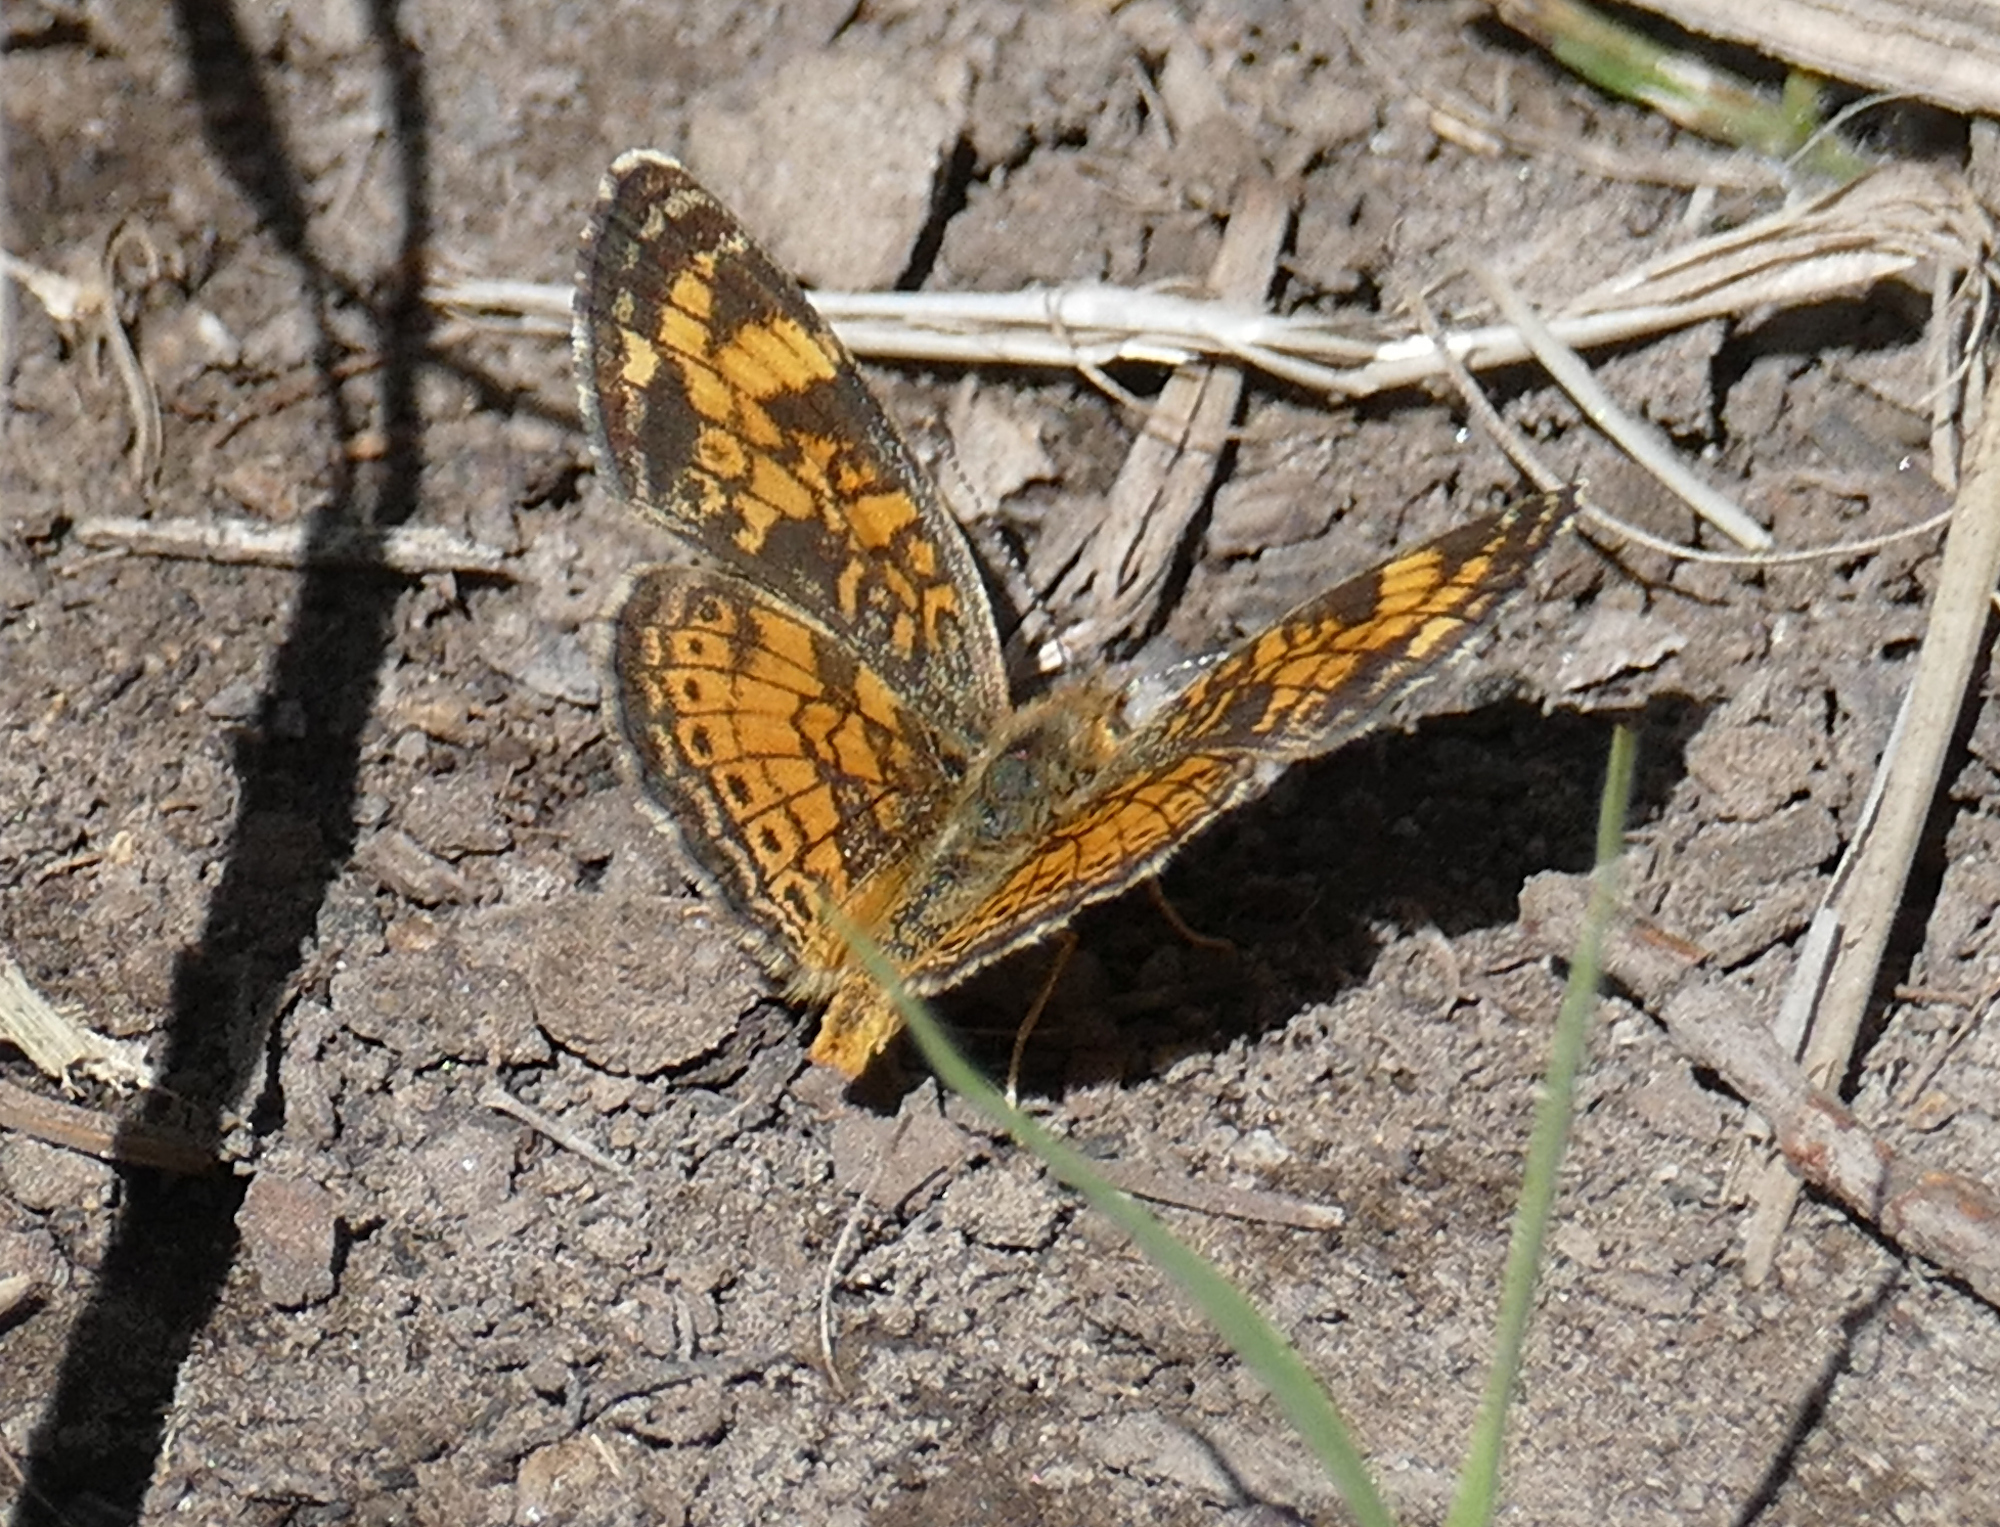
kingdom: Animalia
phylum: Arthropoda
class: Insecta
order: Lepidoptera
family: Nymphalidae
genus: Phyciodes
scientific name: Phyciodes tharos
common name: Pearl crescent
